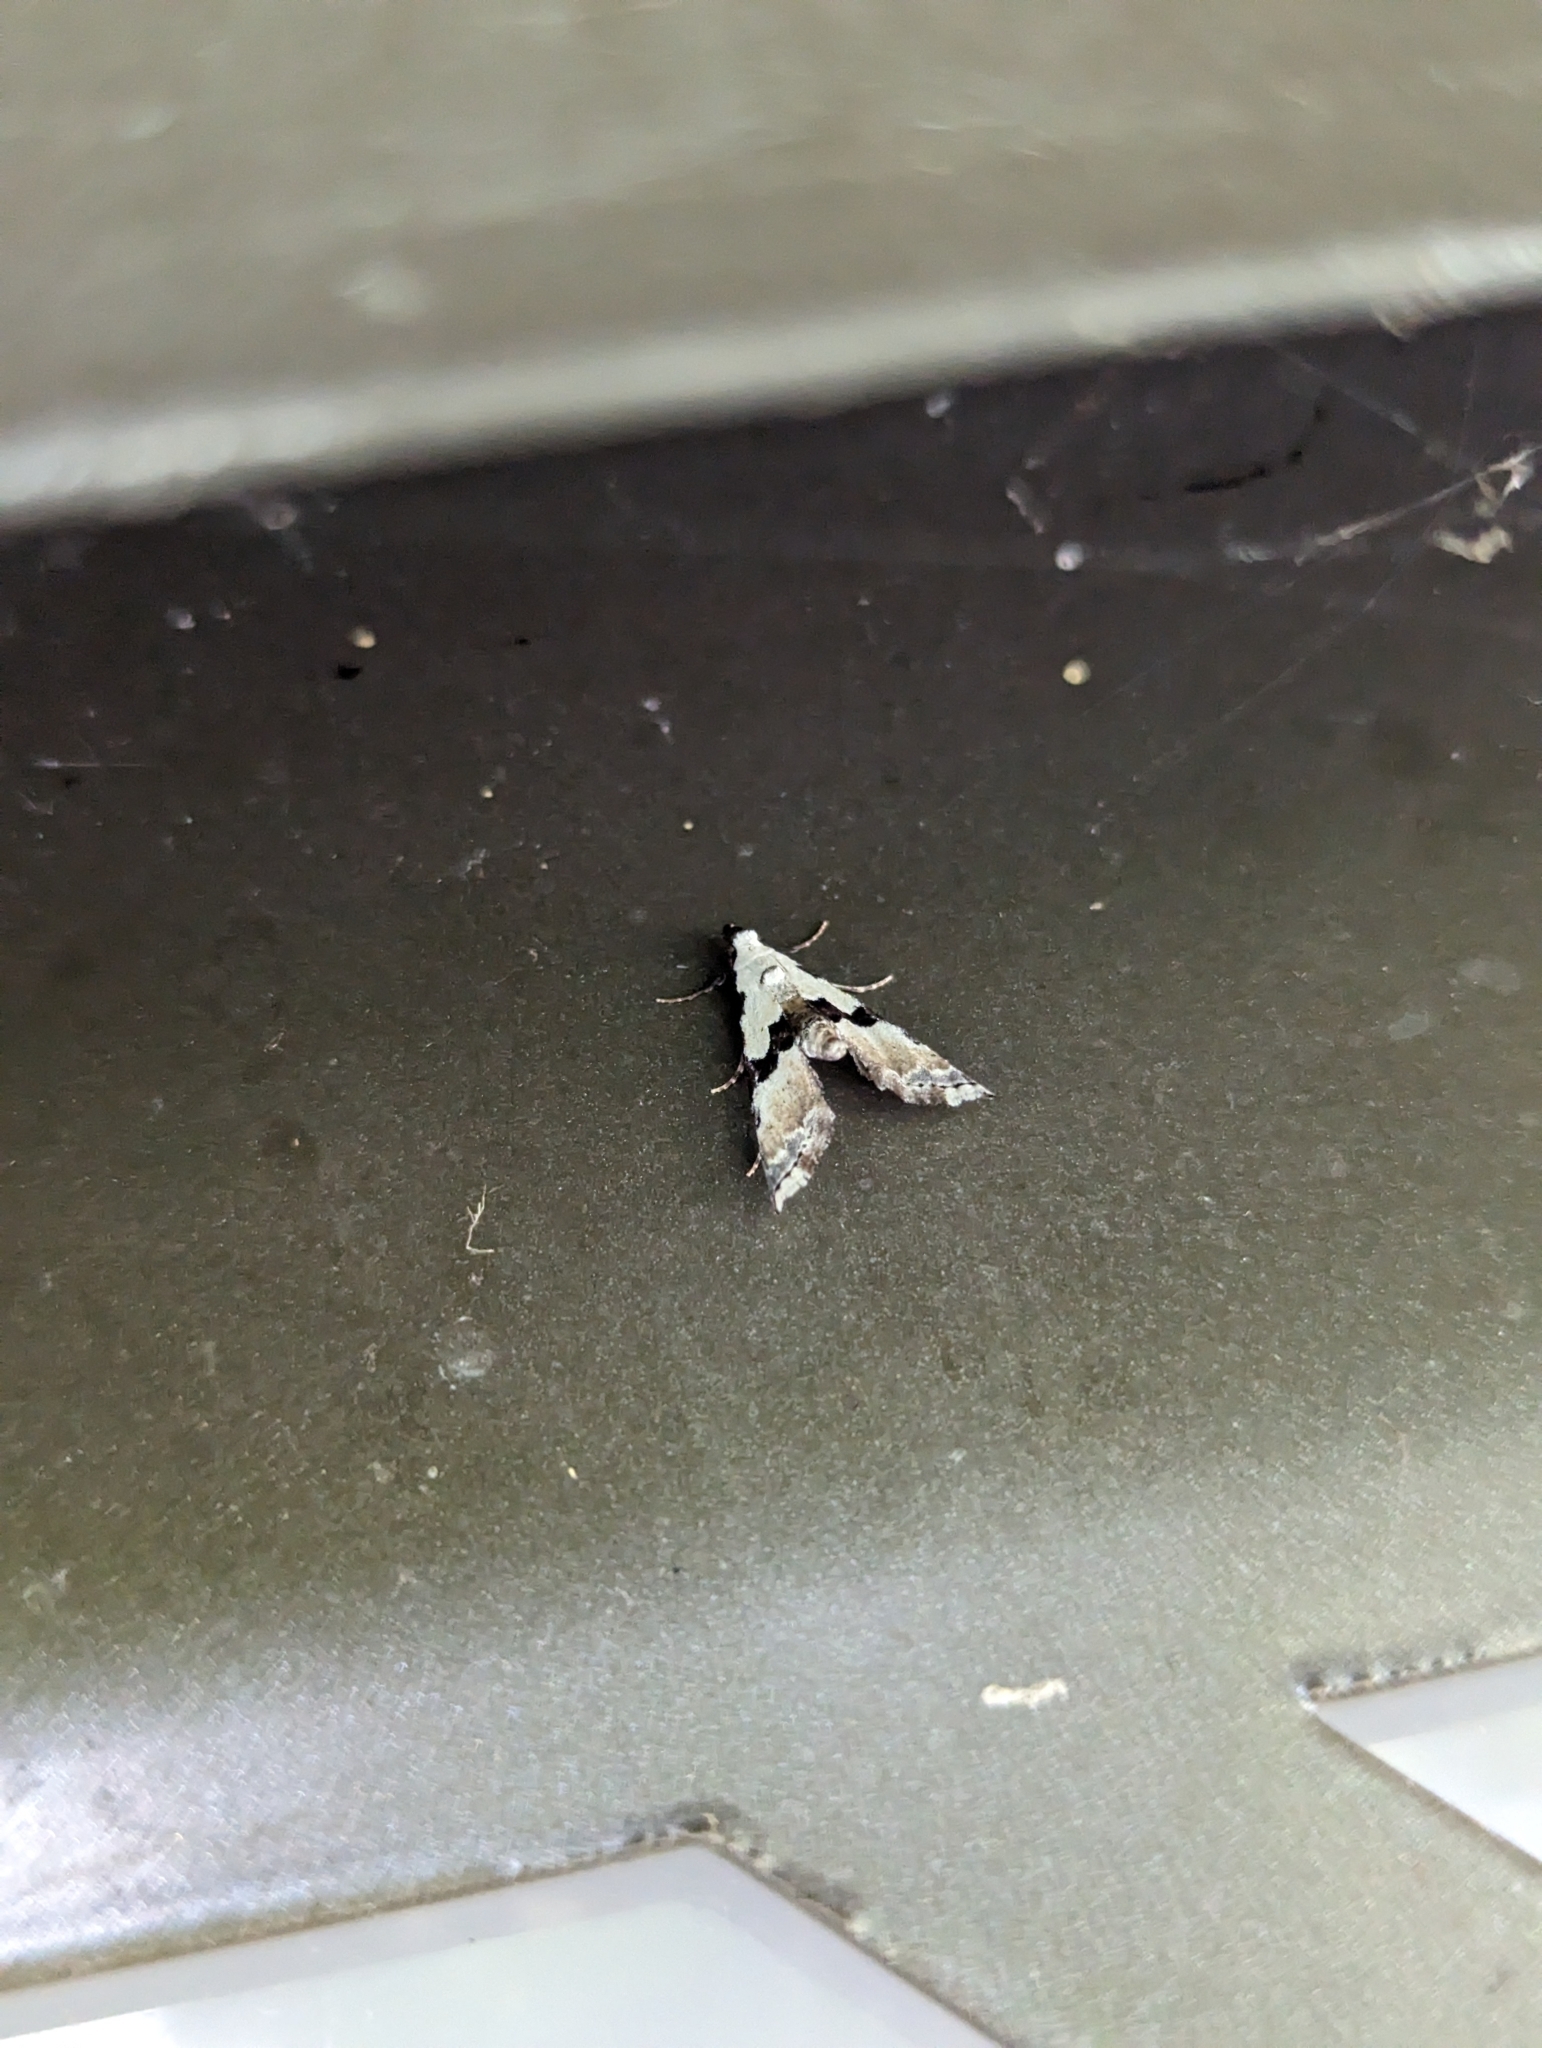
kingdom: Animalia
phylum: Arthropoda
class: Insecta
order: Lepidoptera
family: Noctuidae
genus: Nigetia
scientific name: Nigetia formosalis
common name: Thin-winged owlet
